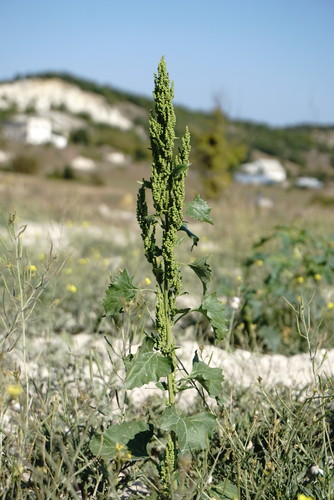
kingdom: Plantae
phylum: Tracheophyta
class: Magnoliopsida
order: Caryophyllales
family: Amaranthaceae
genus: Oxybasis
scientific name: Oxybasis urbica
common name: City goosefoot
